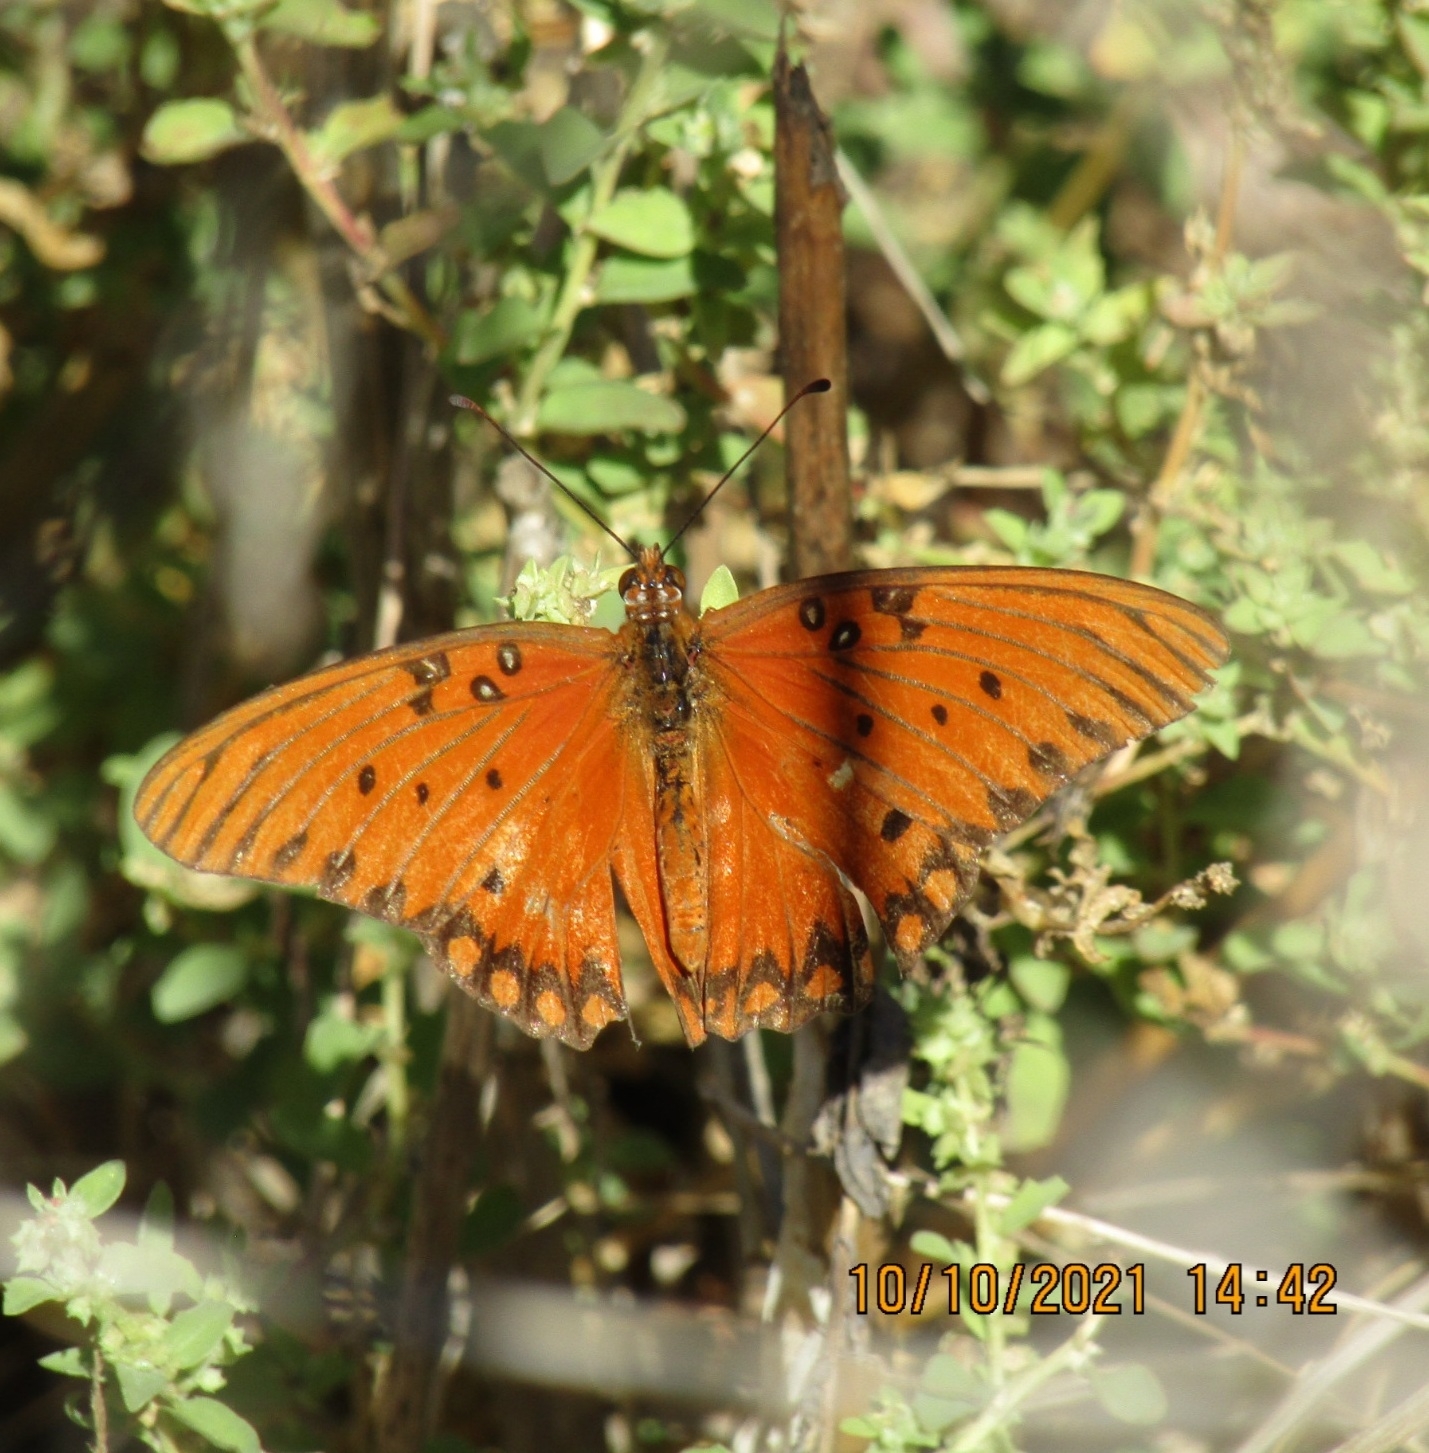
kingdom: Animalia
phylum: Arthropoda
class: Insecta
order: Lepidoptera
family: Nymphalidae
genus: Dione
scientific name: Dione vanillae
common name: Gulf fritillary
